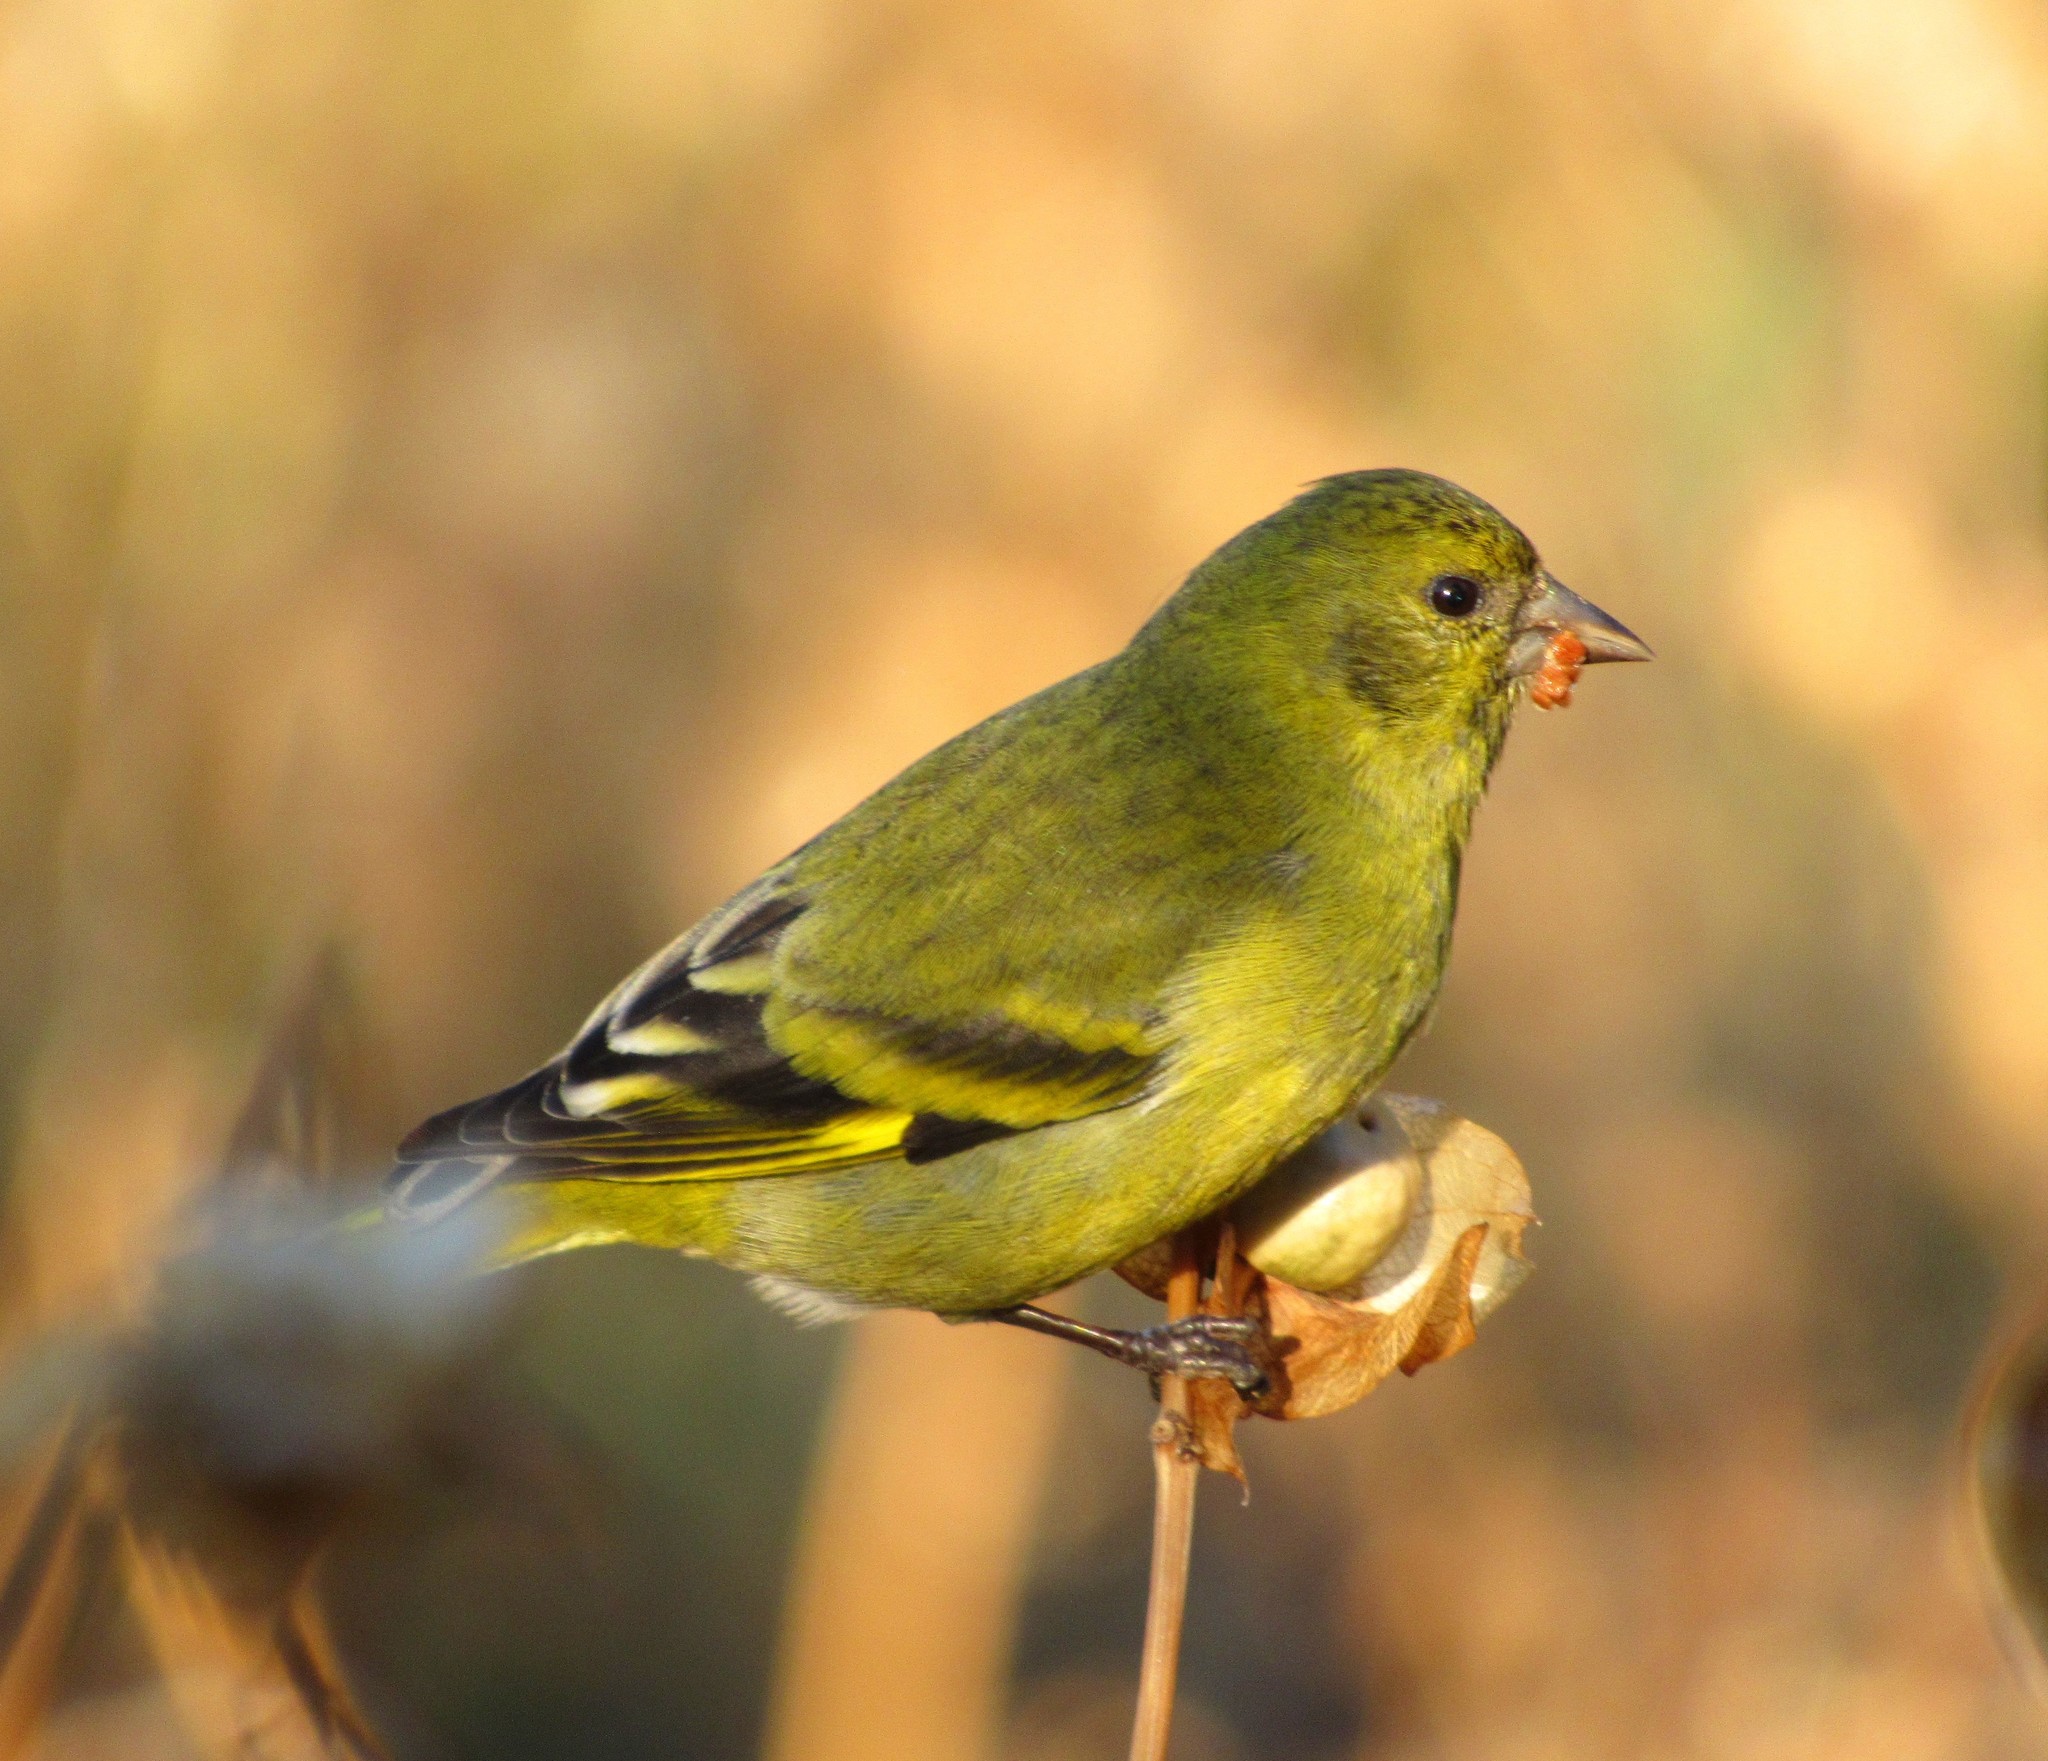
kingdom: Animalia
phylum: Chordata
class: Aves
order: Passeriformes
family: Fringillidae
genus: Spinus
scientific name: Spinus magellanicus
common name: Hooded siskin
